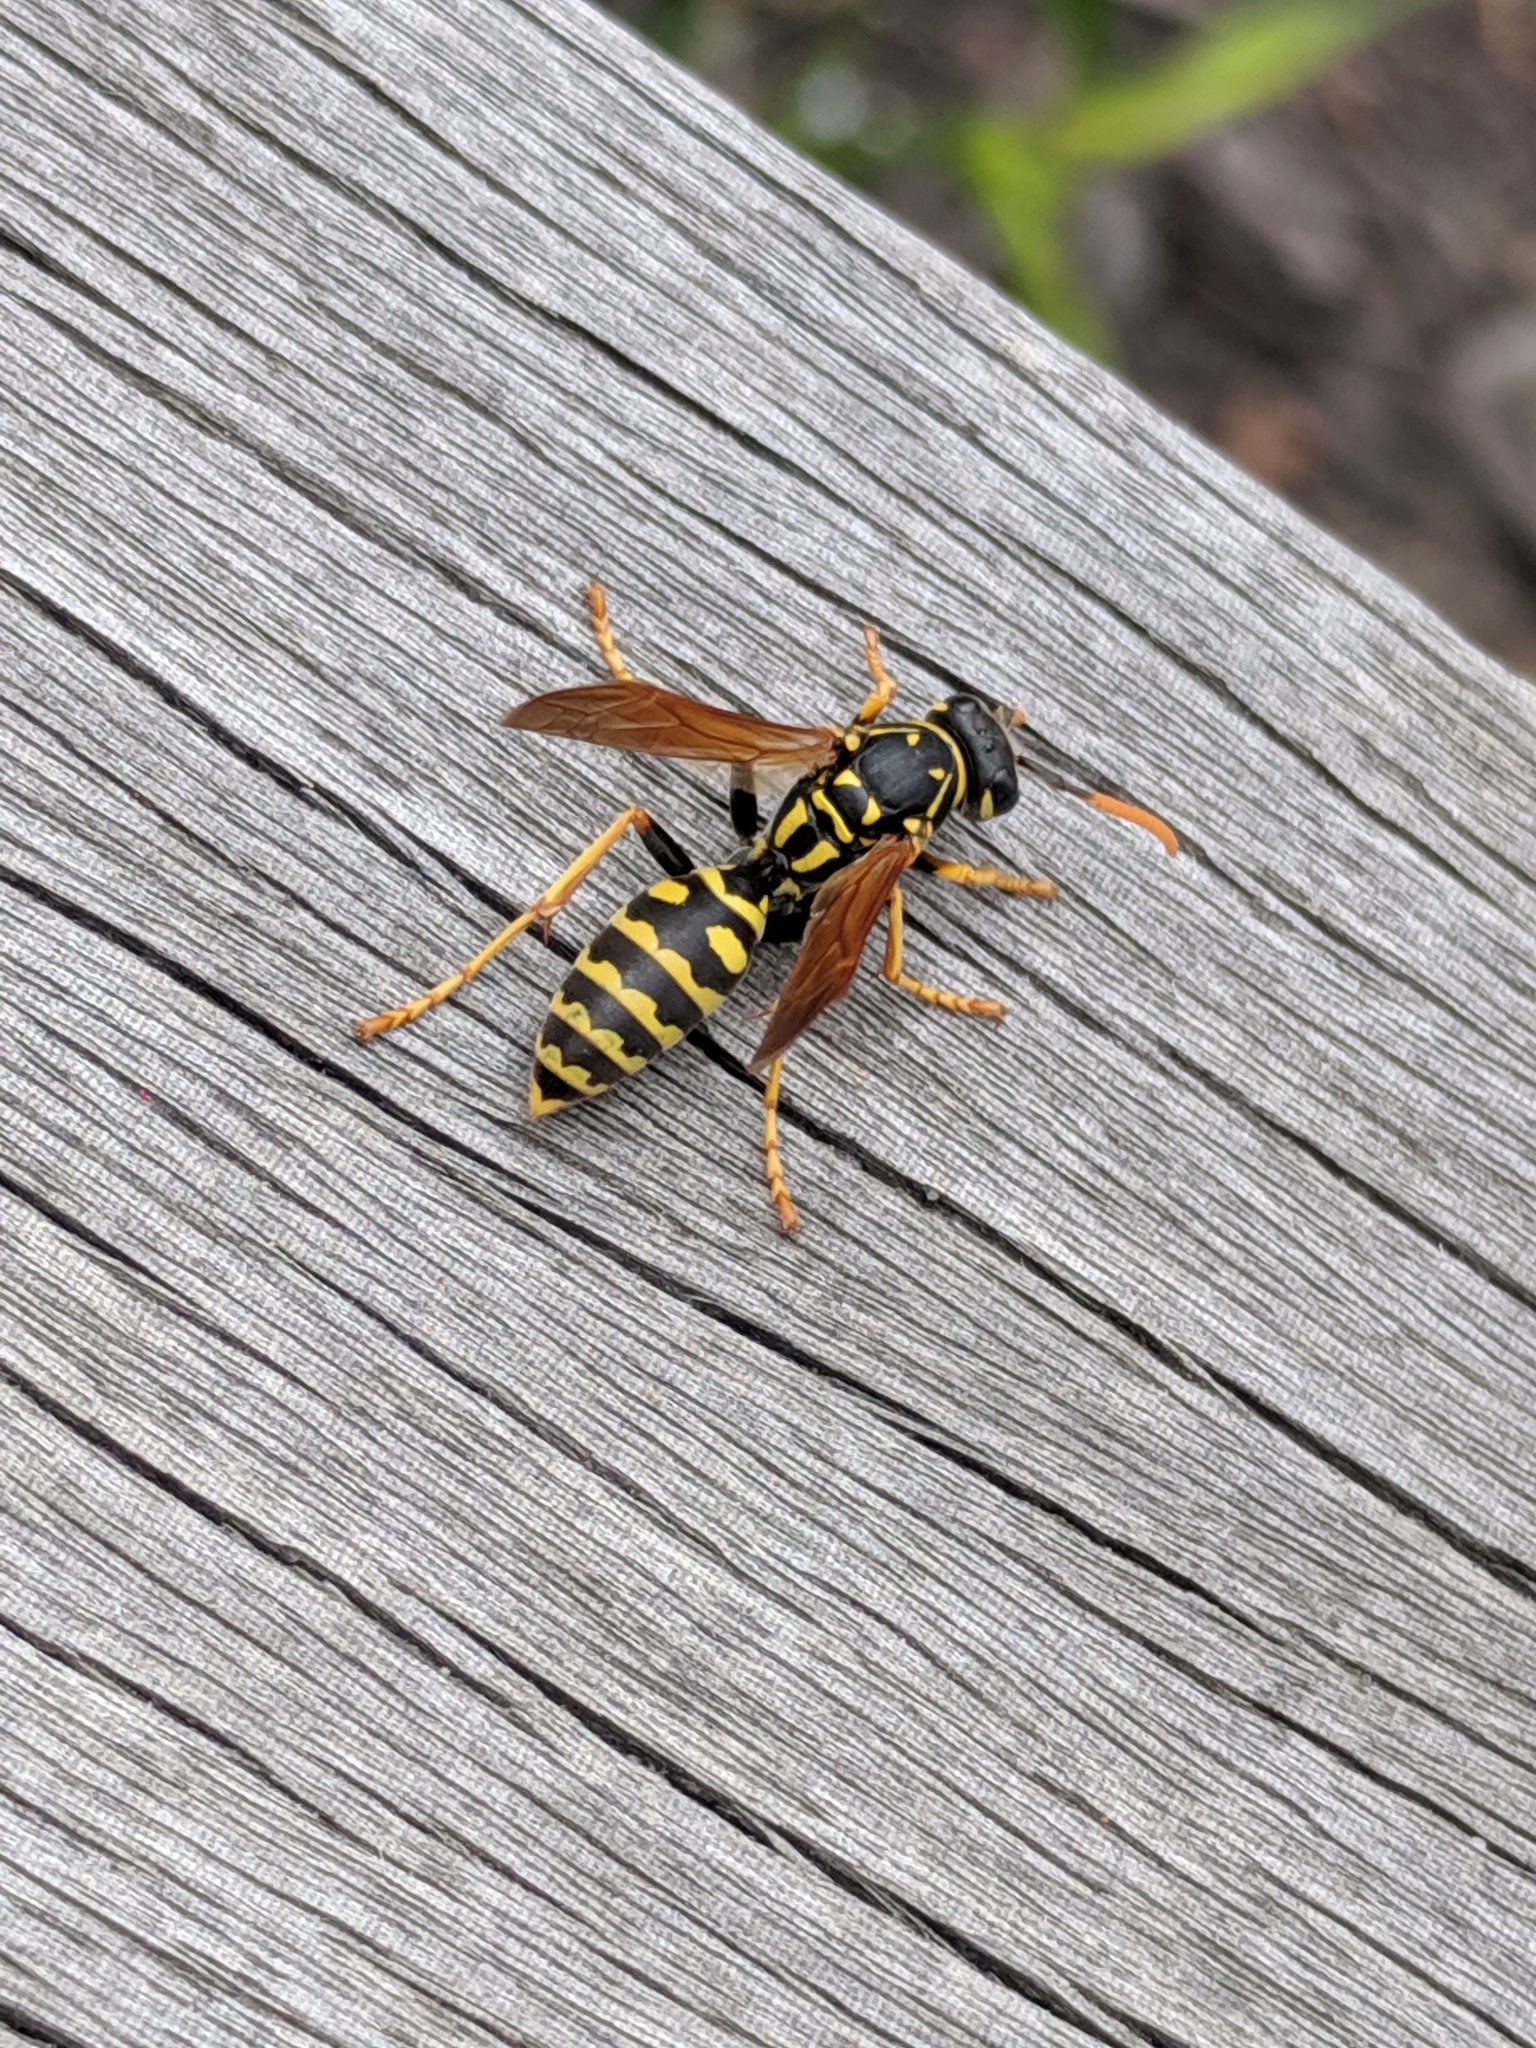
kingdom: Animalia
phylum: Arthropoda
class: Insecta
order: Hymenoptera
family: Eumenidae
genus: Polistes
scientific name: Polistes dominula
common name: Paper wasp
